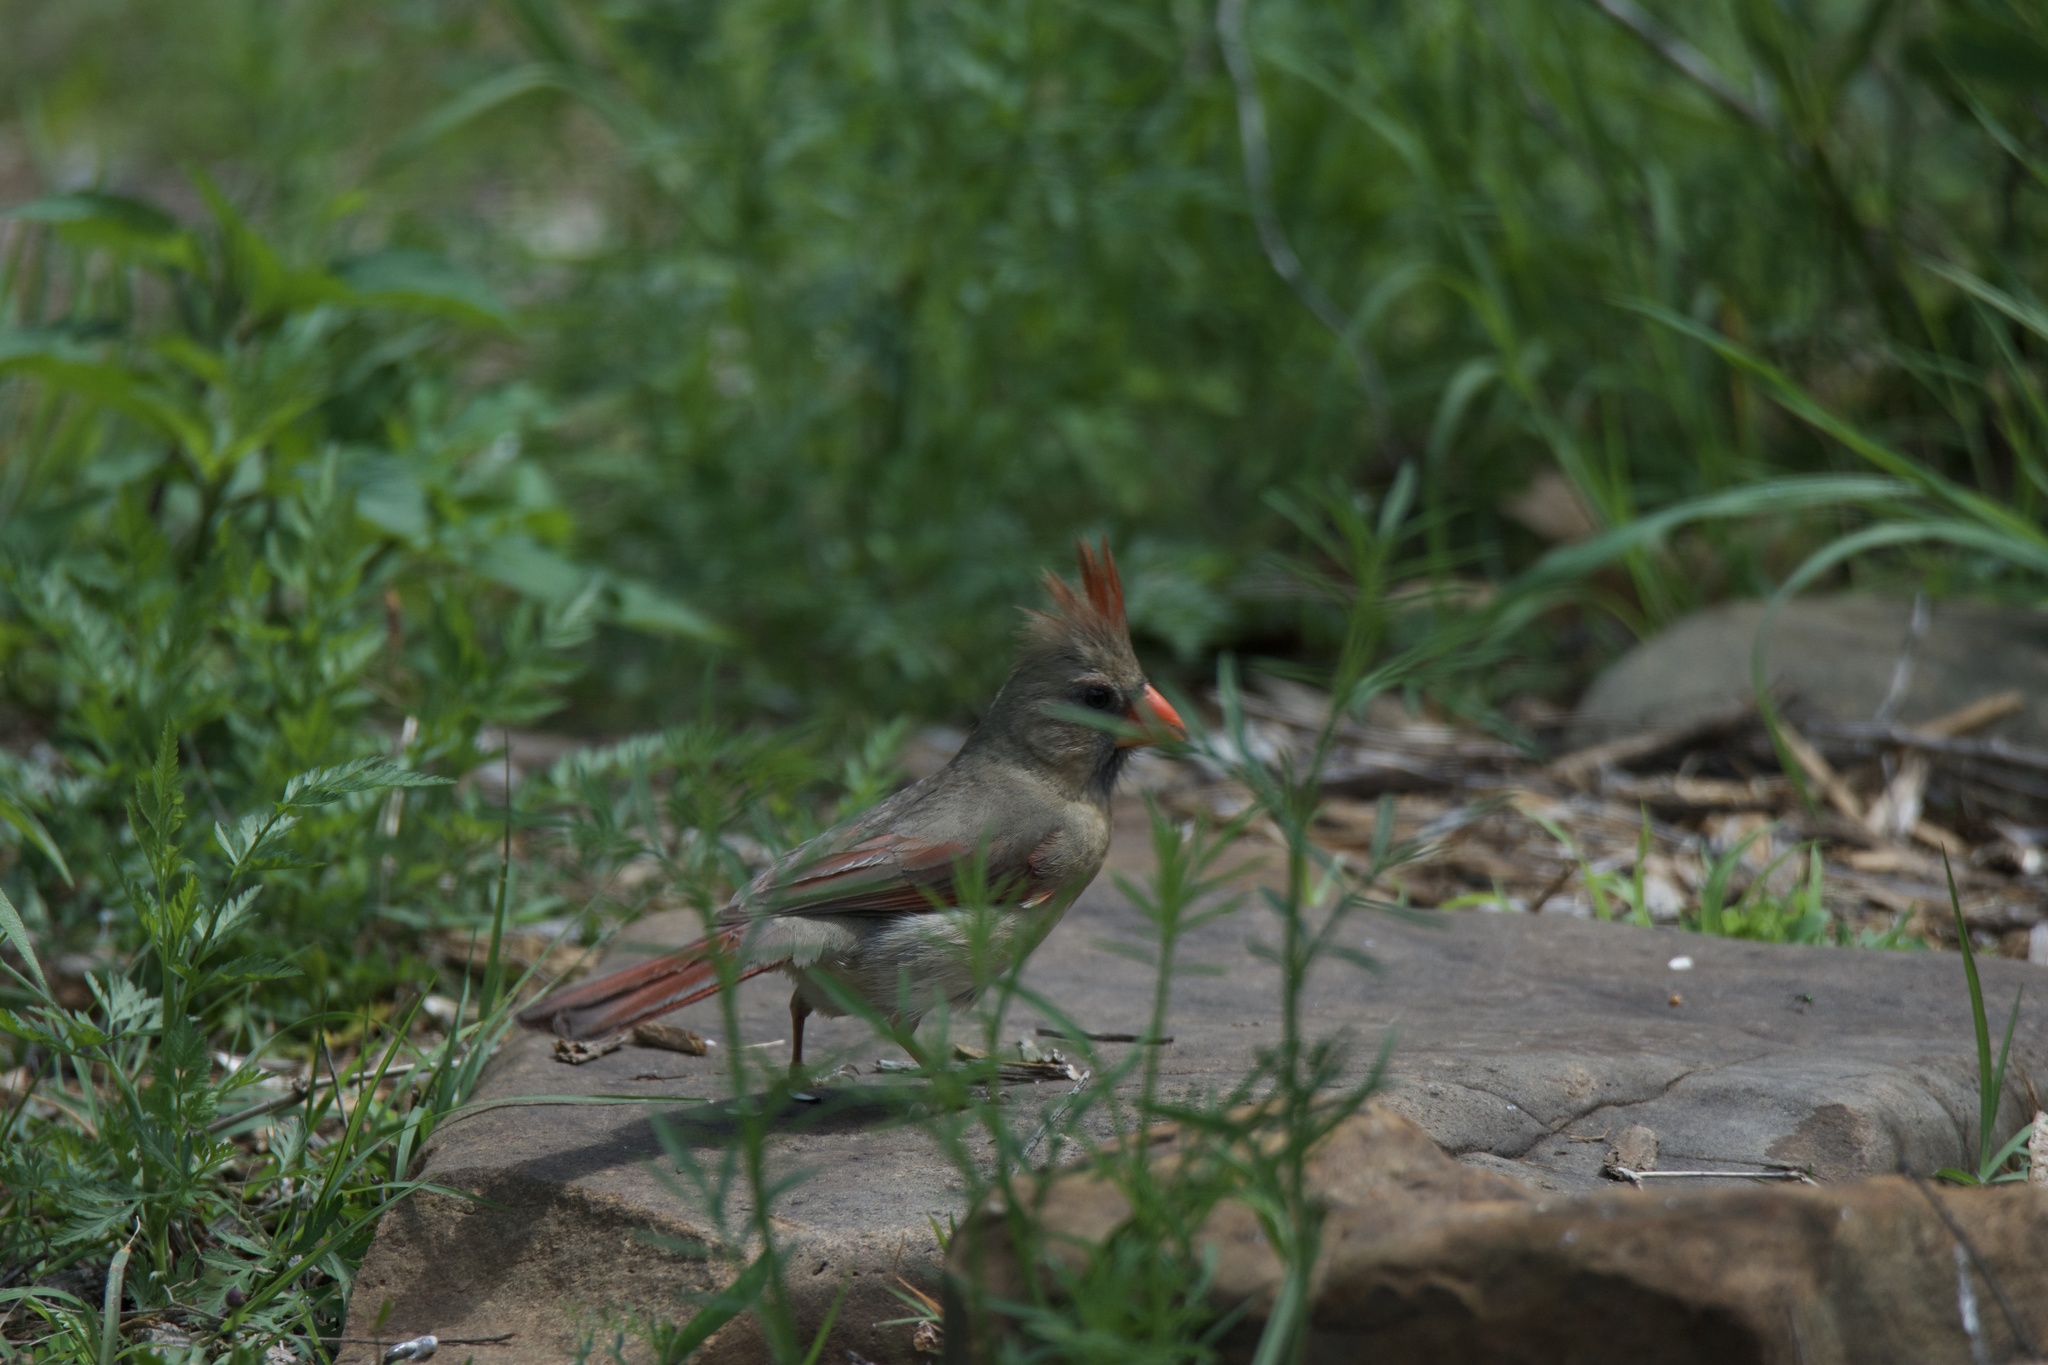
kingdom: Animalia
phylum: Chordata
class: Aves
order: Passeriformes
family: Cardinalidae
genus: Cardinalis
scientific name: Cardinalis cardinalis
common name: Northern cardinal
